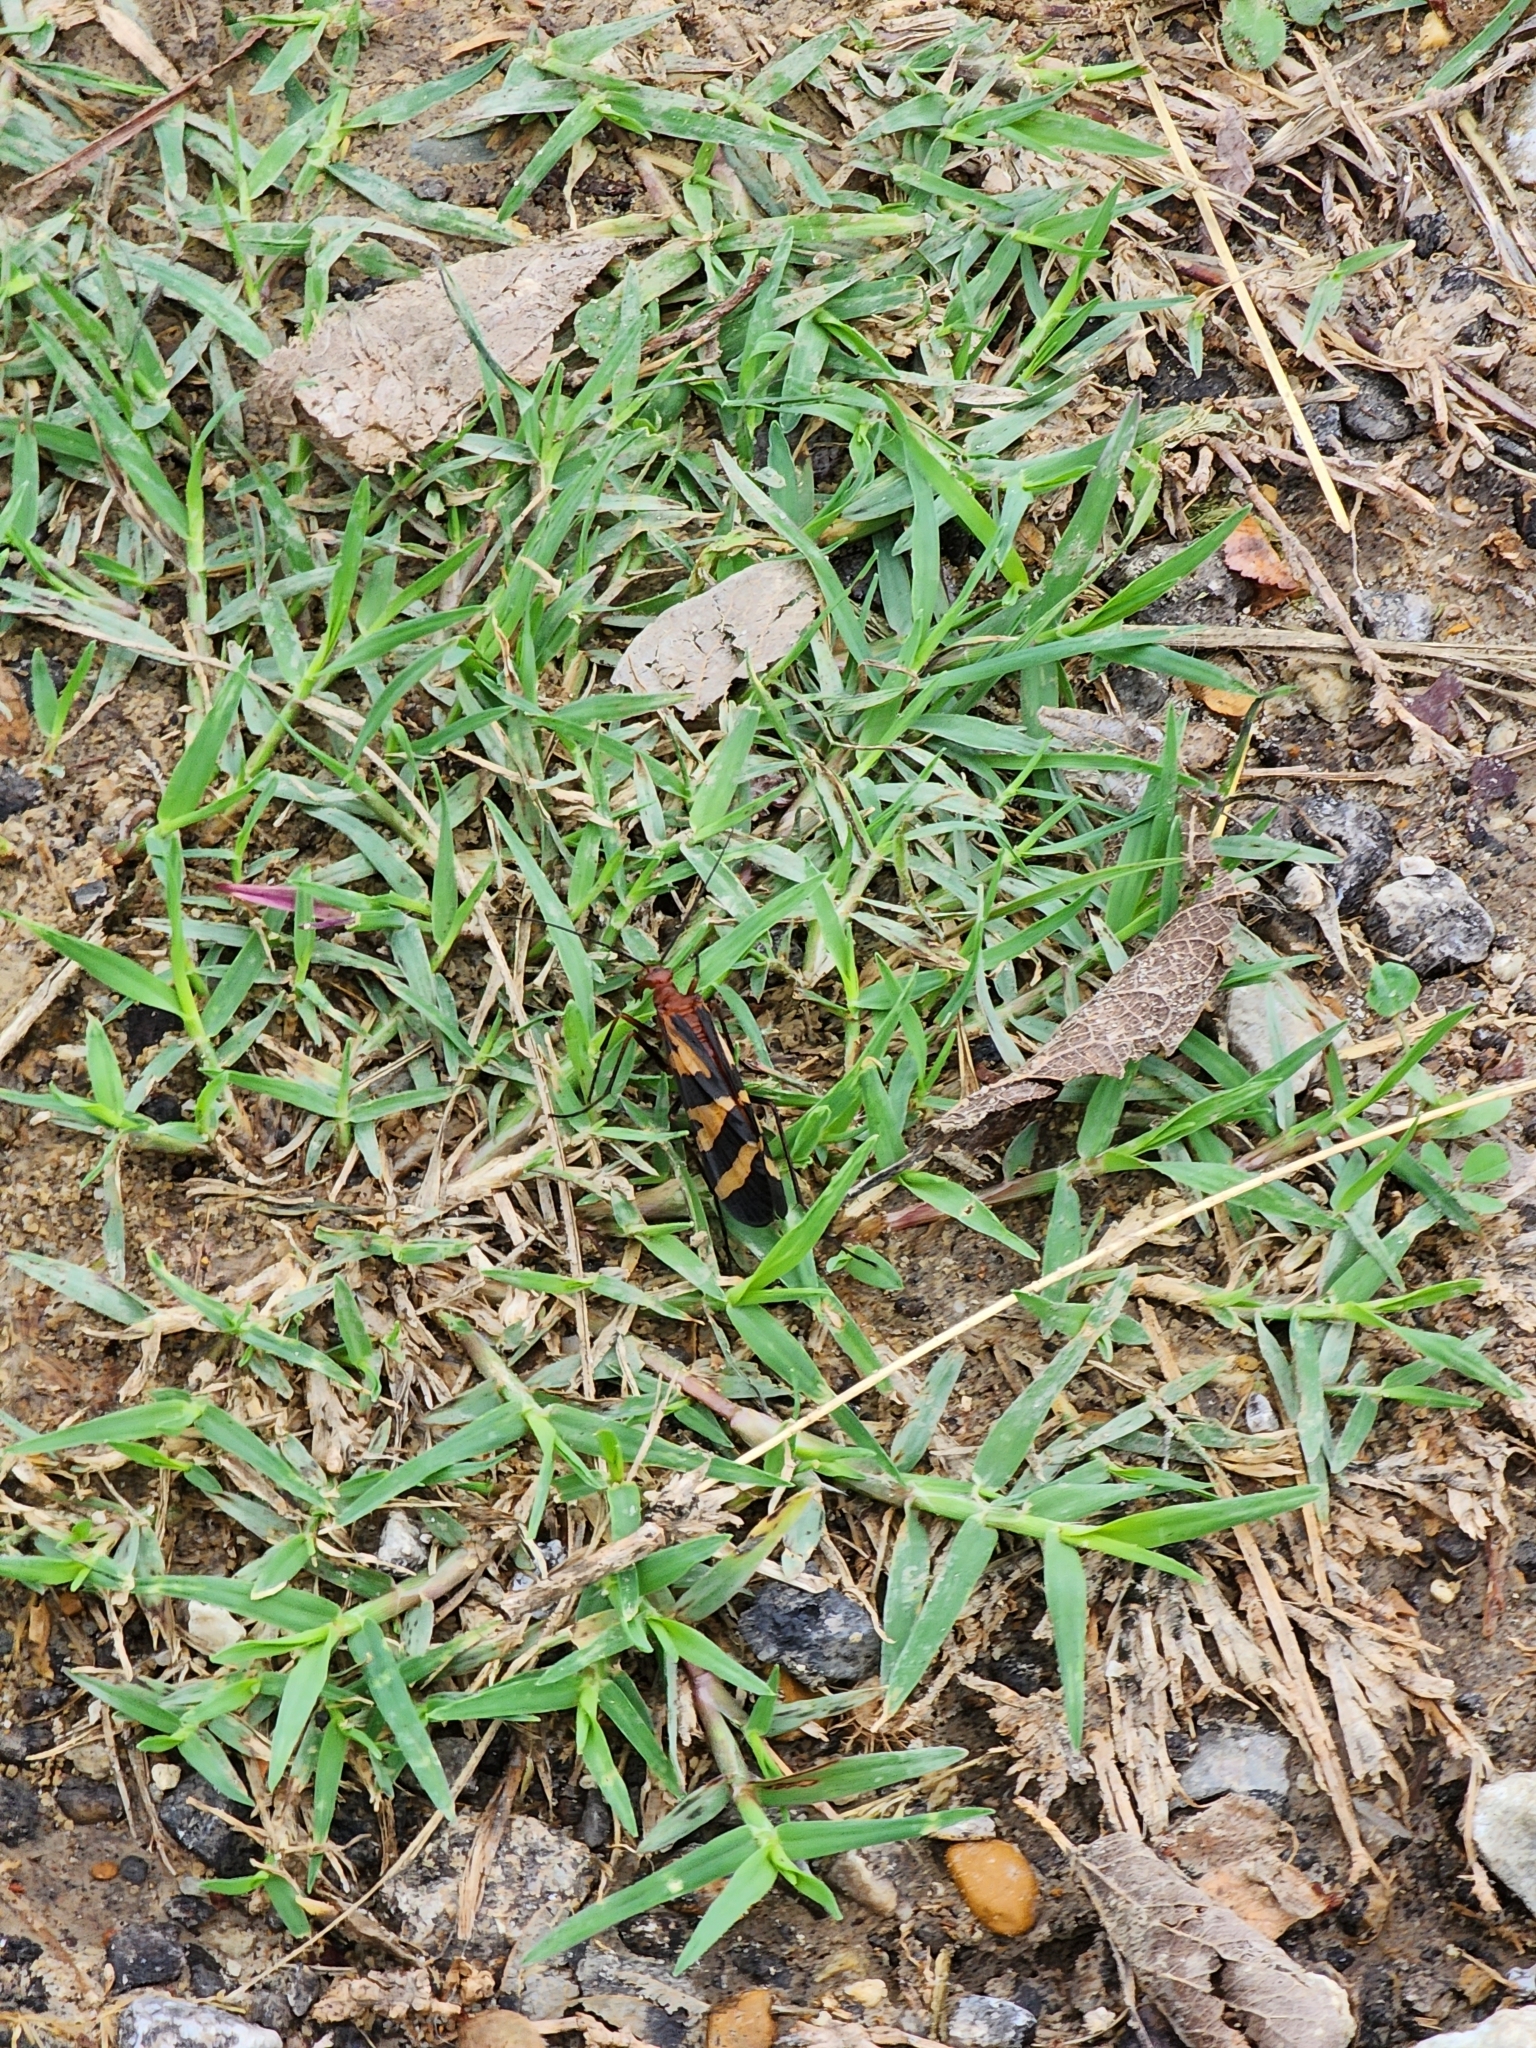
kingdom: Animalia
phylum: Arthropoda
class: Insecta
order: Mecoptera
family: Panorpidae
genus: Panorpa
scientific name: Panorpa nuptialis
